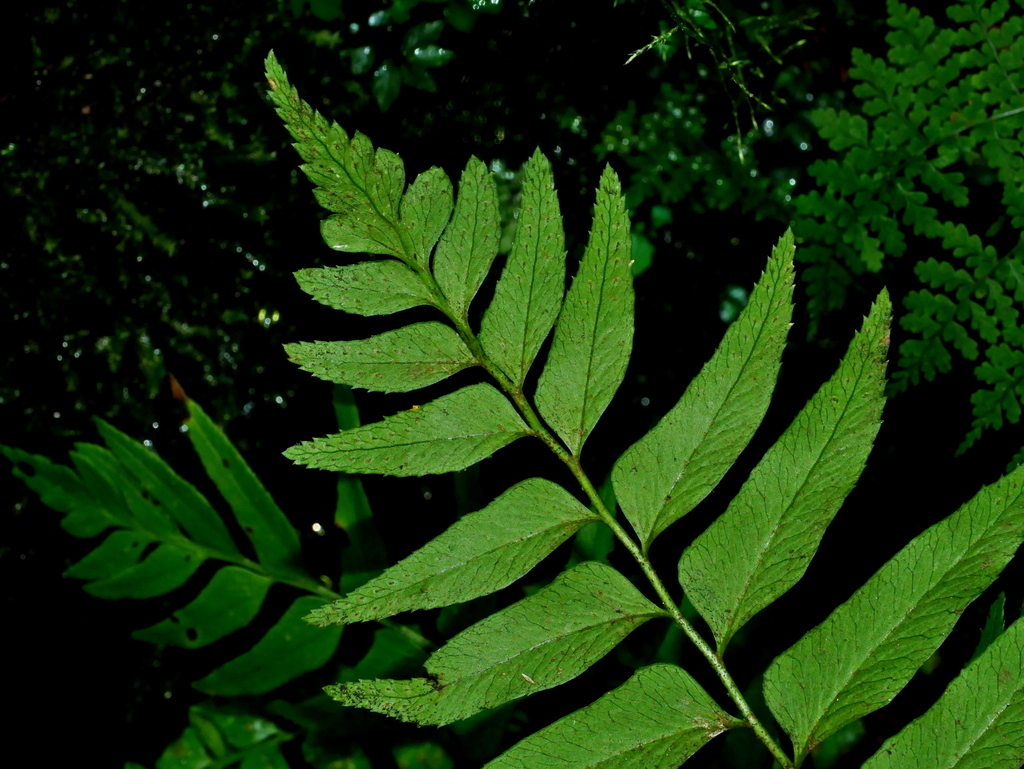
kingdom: Plantae
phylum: Tracheophyta
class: Polypodiopsida
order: Polypodiales
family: Dryopteridaceae
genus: Polystichum
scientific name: Polystichum integripinnum
